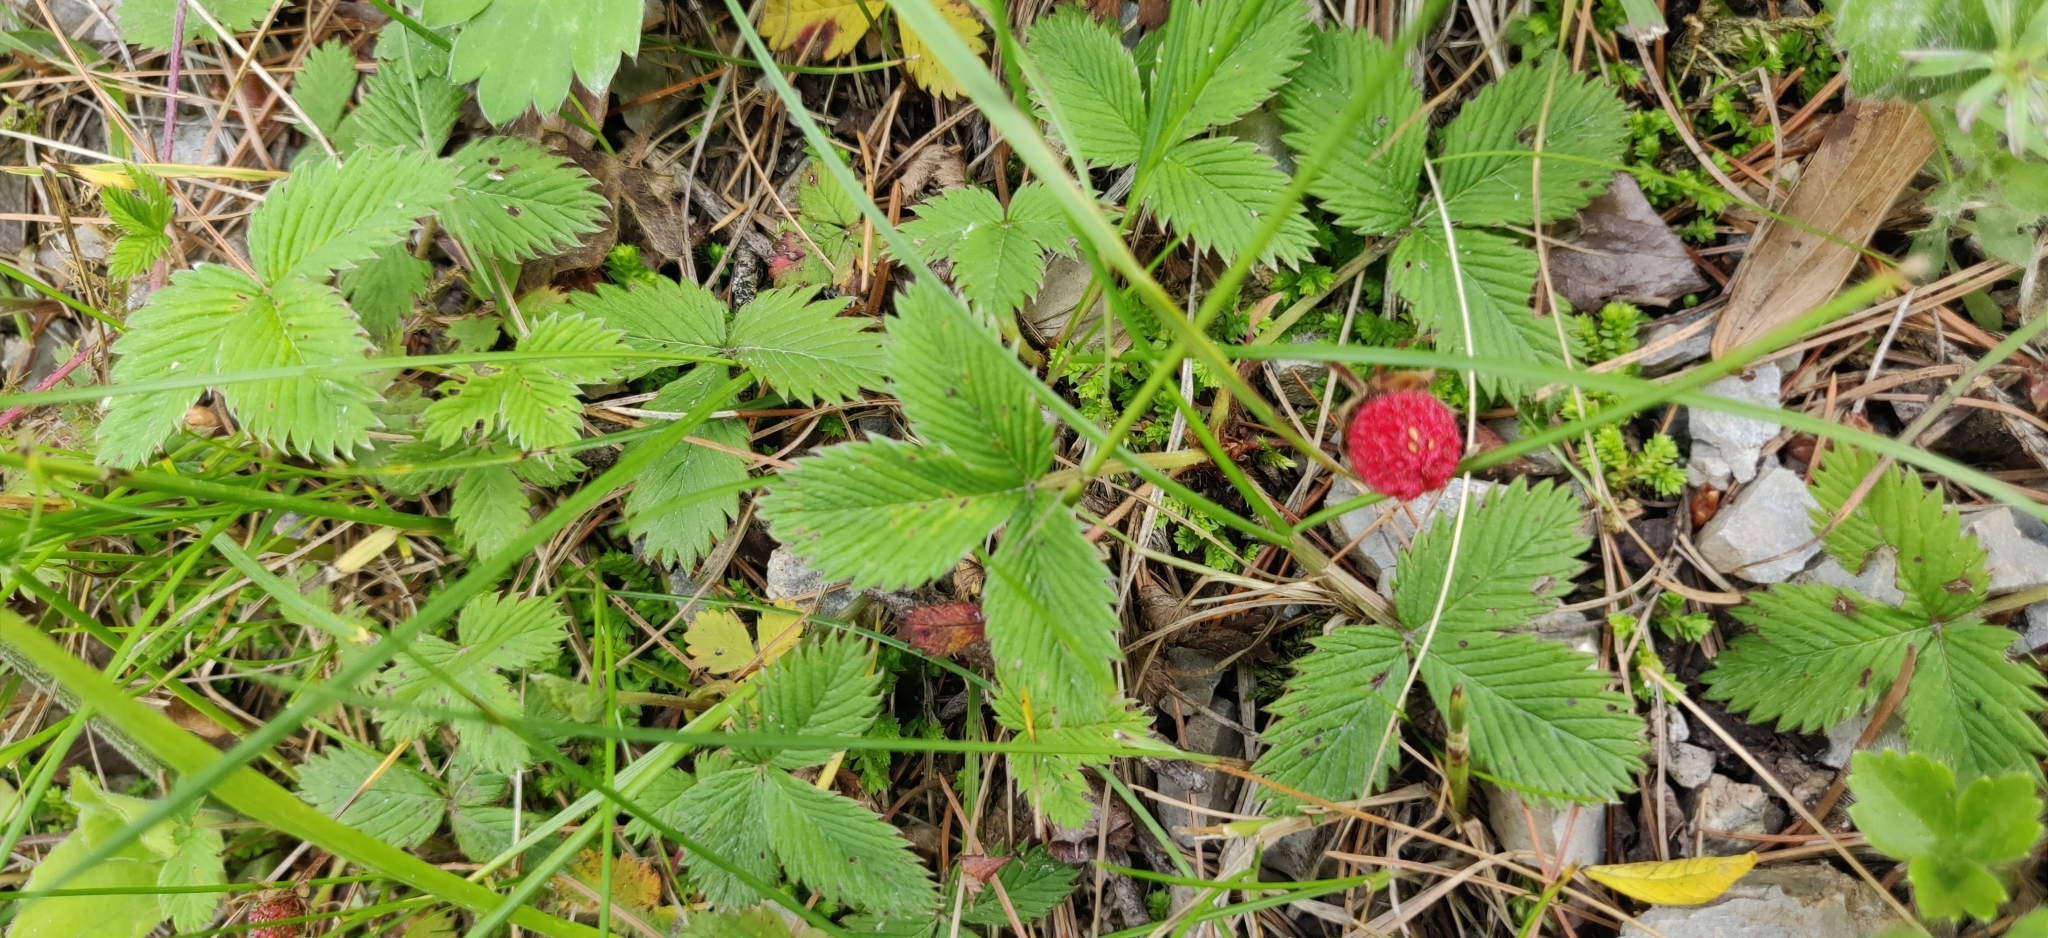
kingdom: Plantae
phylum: Tracheophyta
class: Magnoliopsida
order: Rosales
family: Rosaceae
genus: Fragaria
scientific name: Fragaria nubicola
